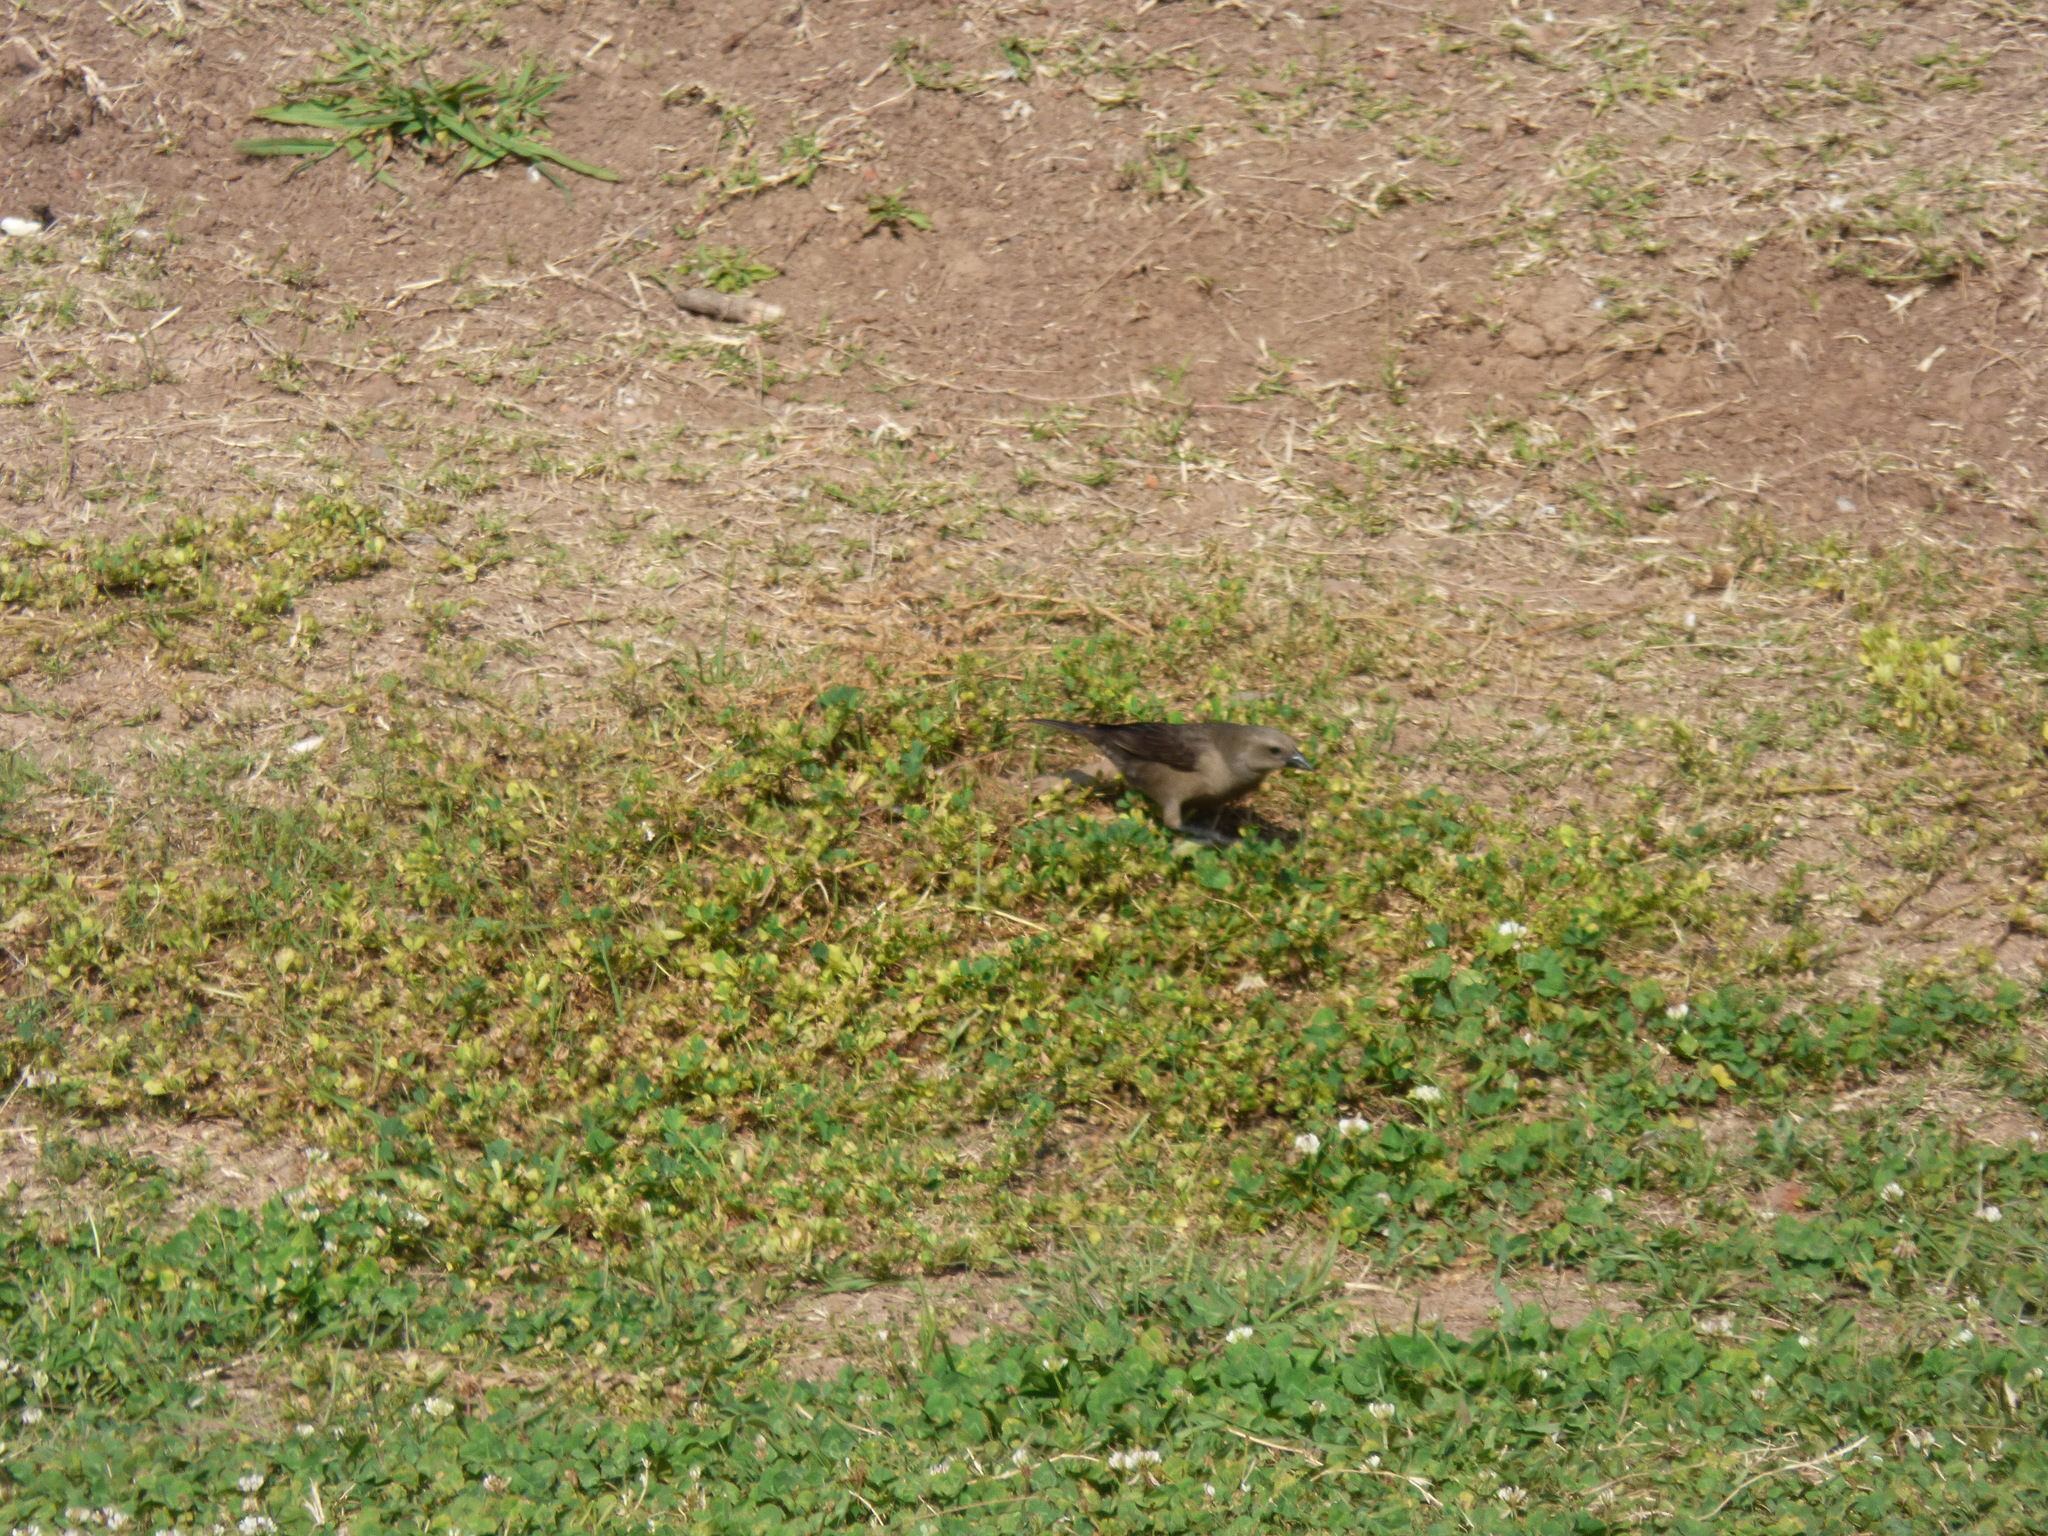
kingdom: Animalia
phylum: Chordata
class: Aves
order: Passeriformes
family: Icteridae
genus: Molothrus
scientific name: Molothrus bonariensis
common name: Shiny cowbird
